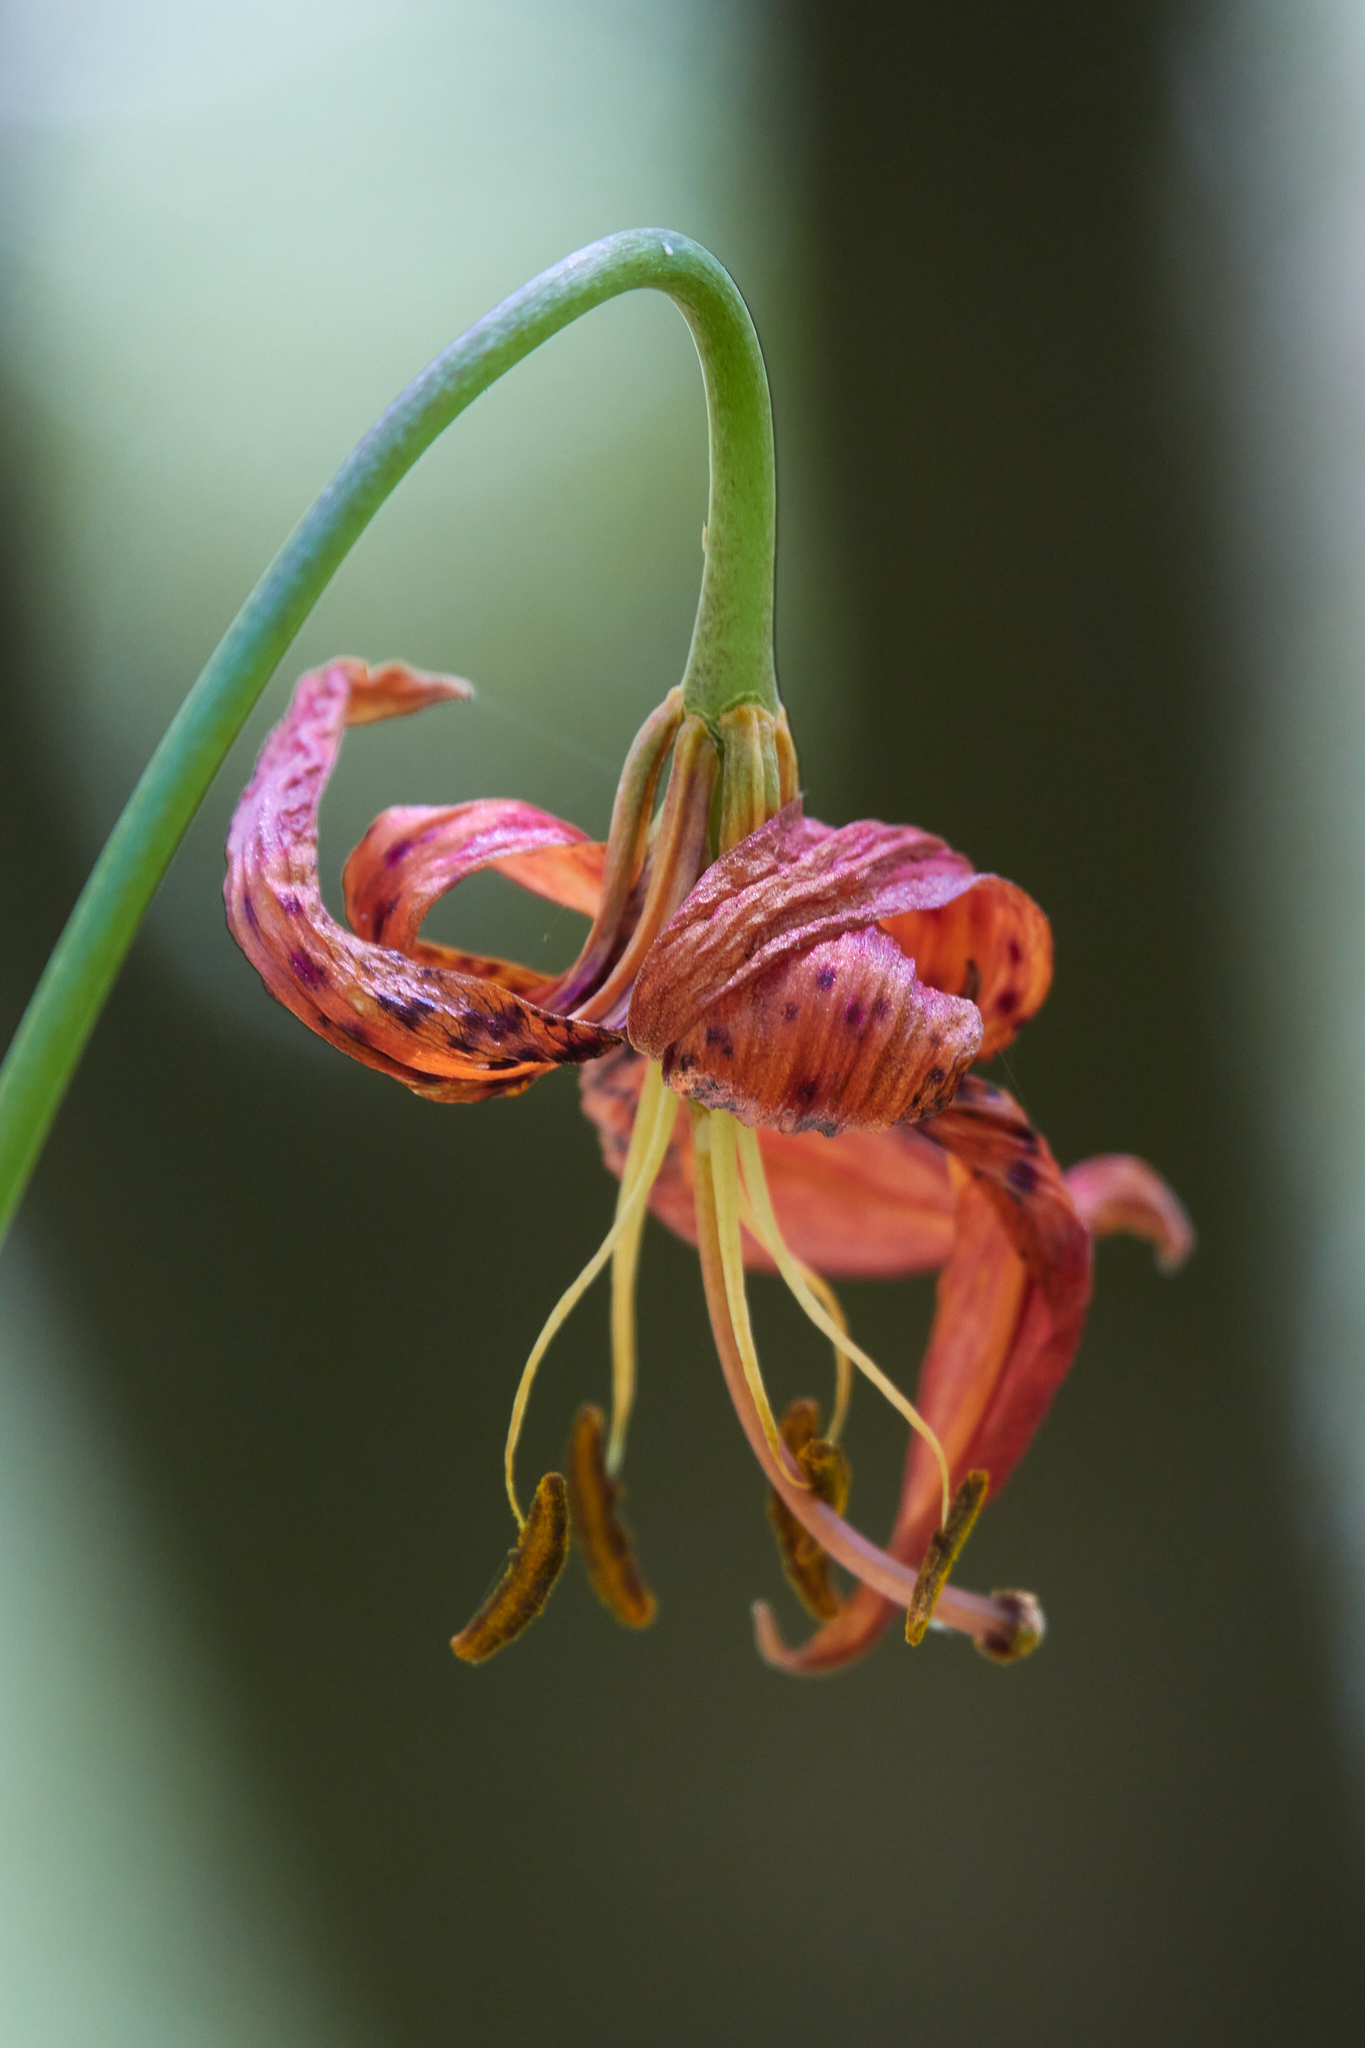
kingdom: Plantae
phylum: Tracheophyta
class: Liliopsida
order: Liliales
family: Liliaceae
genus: Lilium
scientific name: Lilium pardalinum
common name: Panther lily
